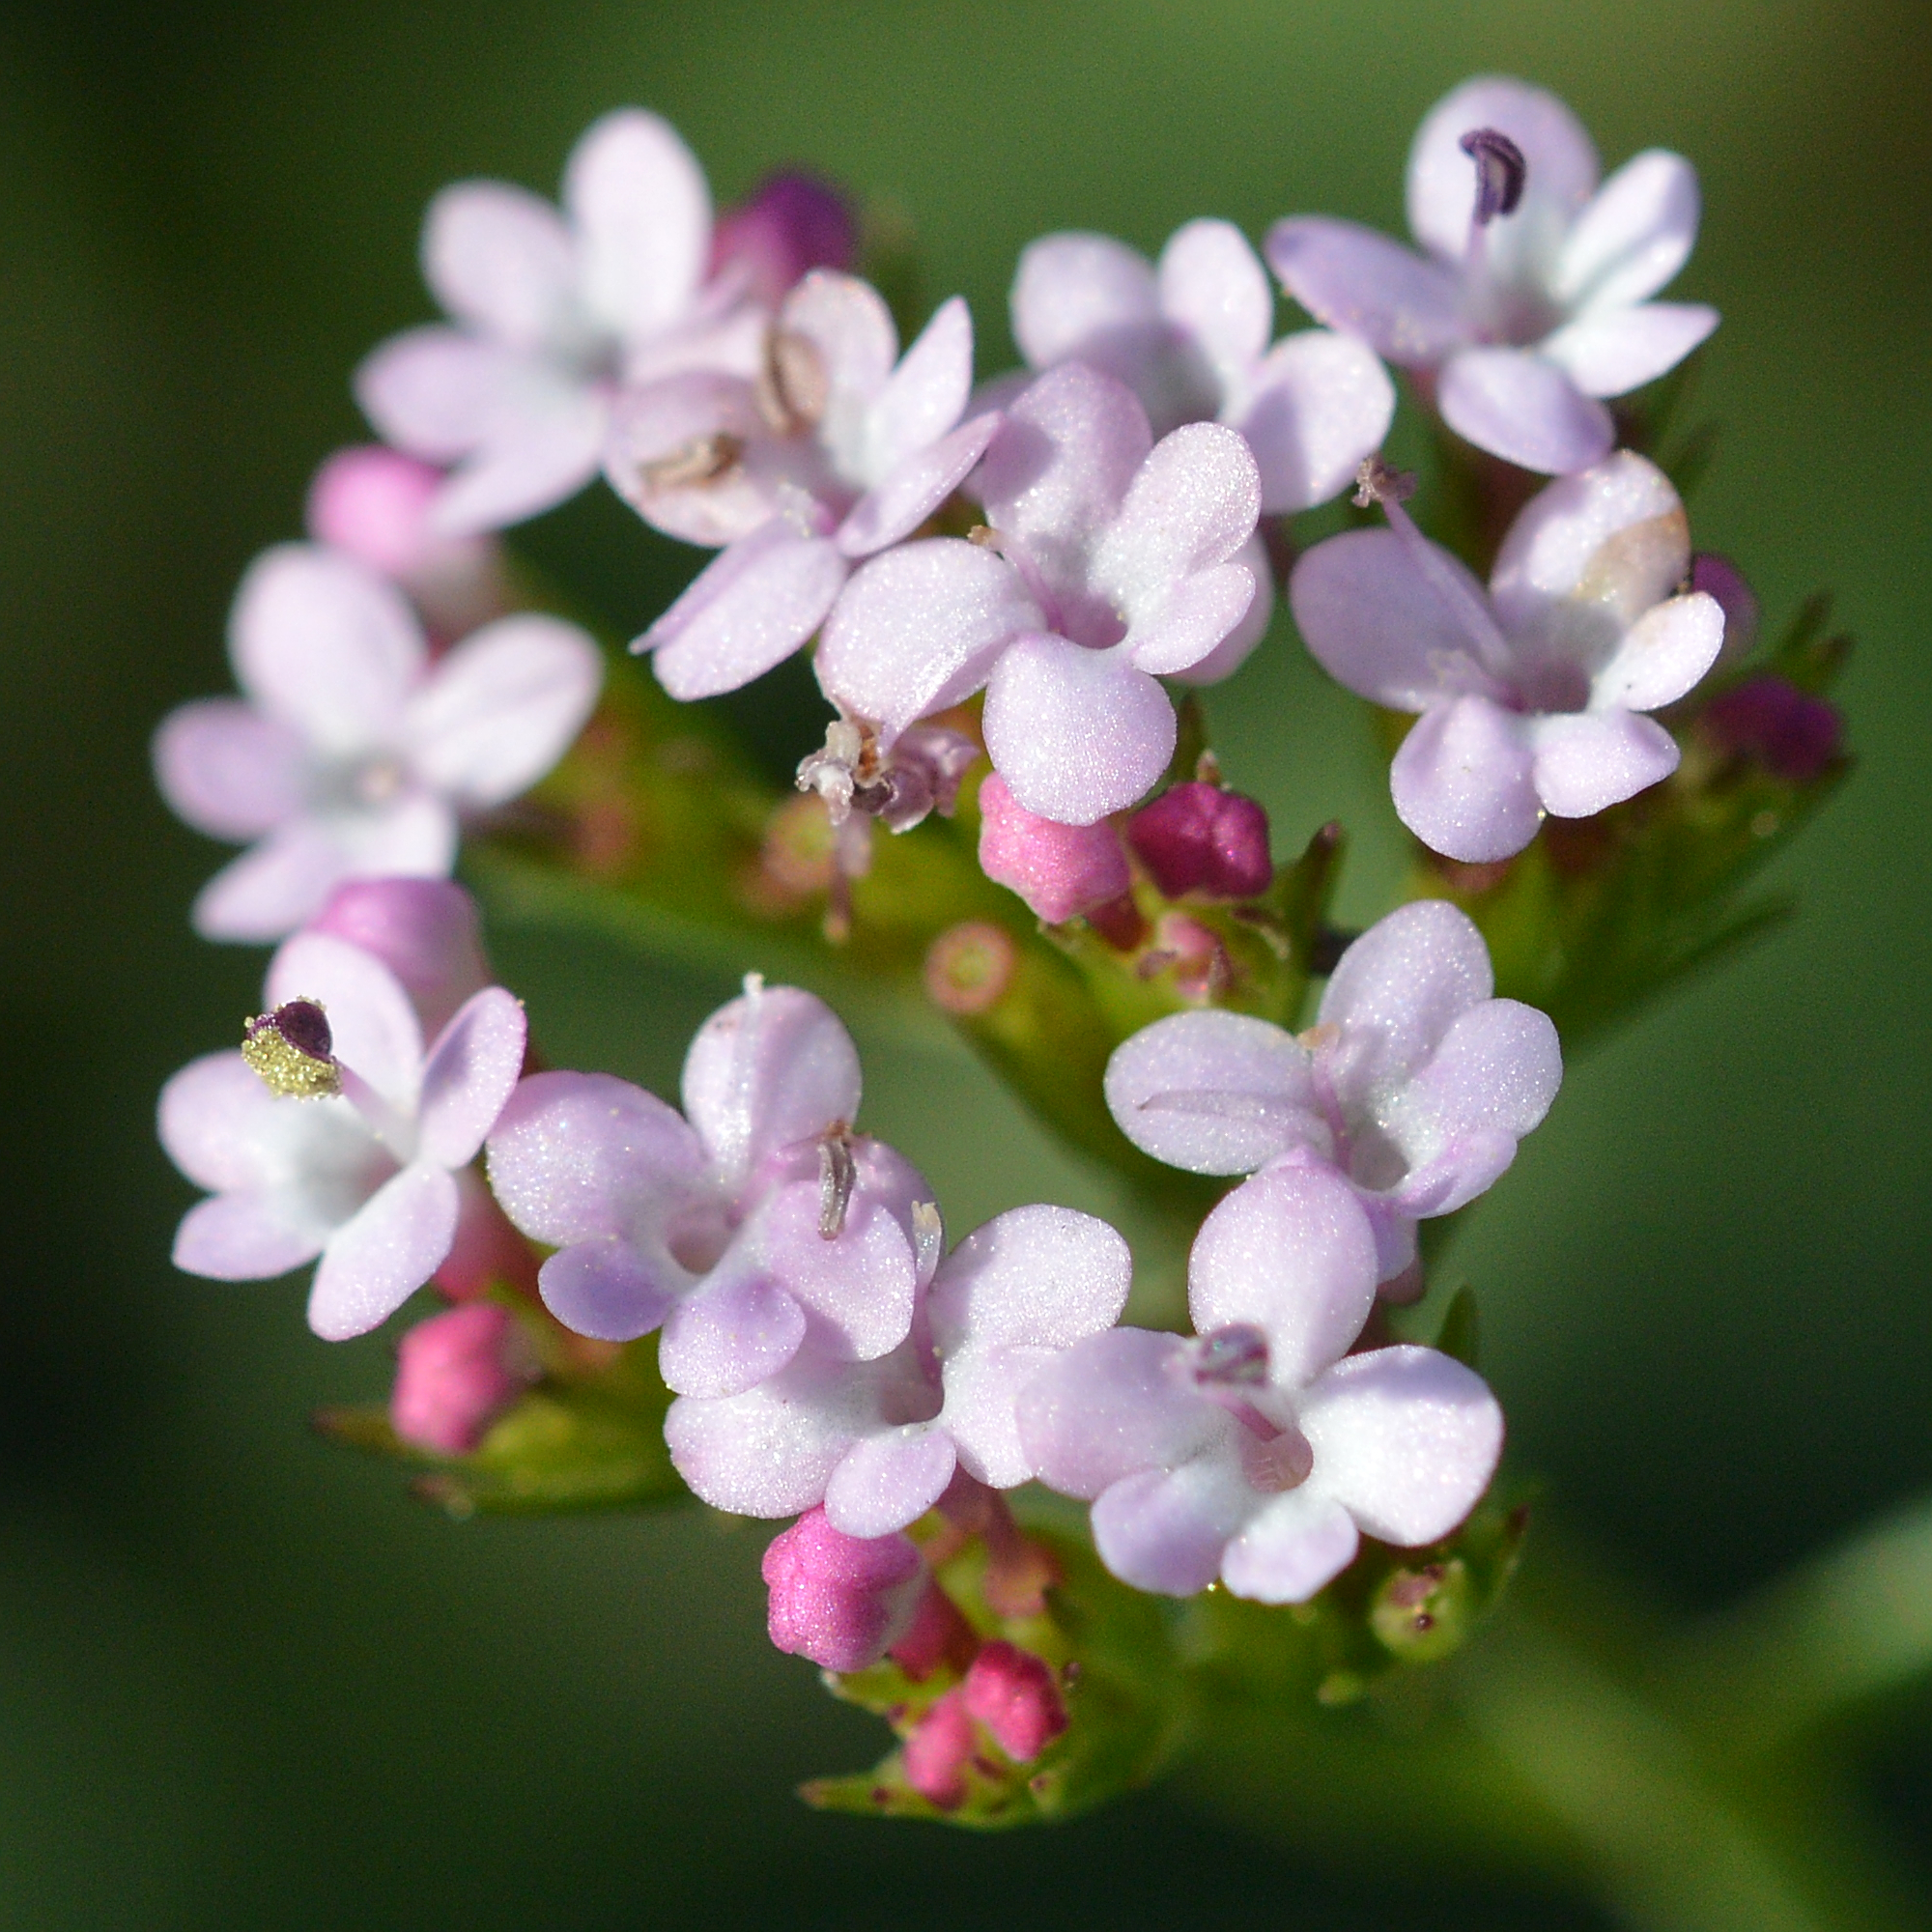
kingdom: Plantae
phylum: Tracheophyta
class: Magnoliopsida
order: Dipsacales
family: Caprifoliaceae
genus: Centranthus
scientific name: Centranthus calcitrapae
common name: Annual valerian
